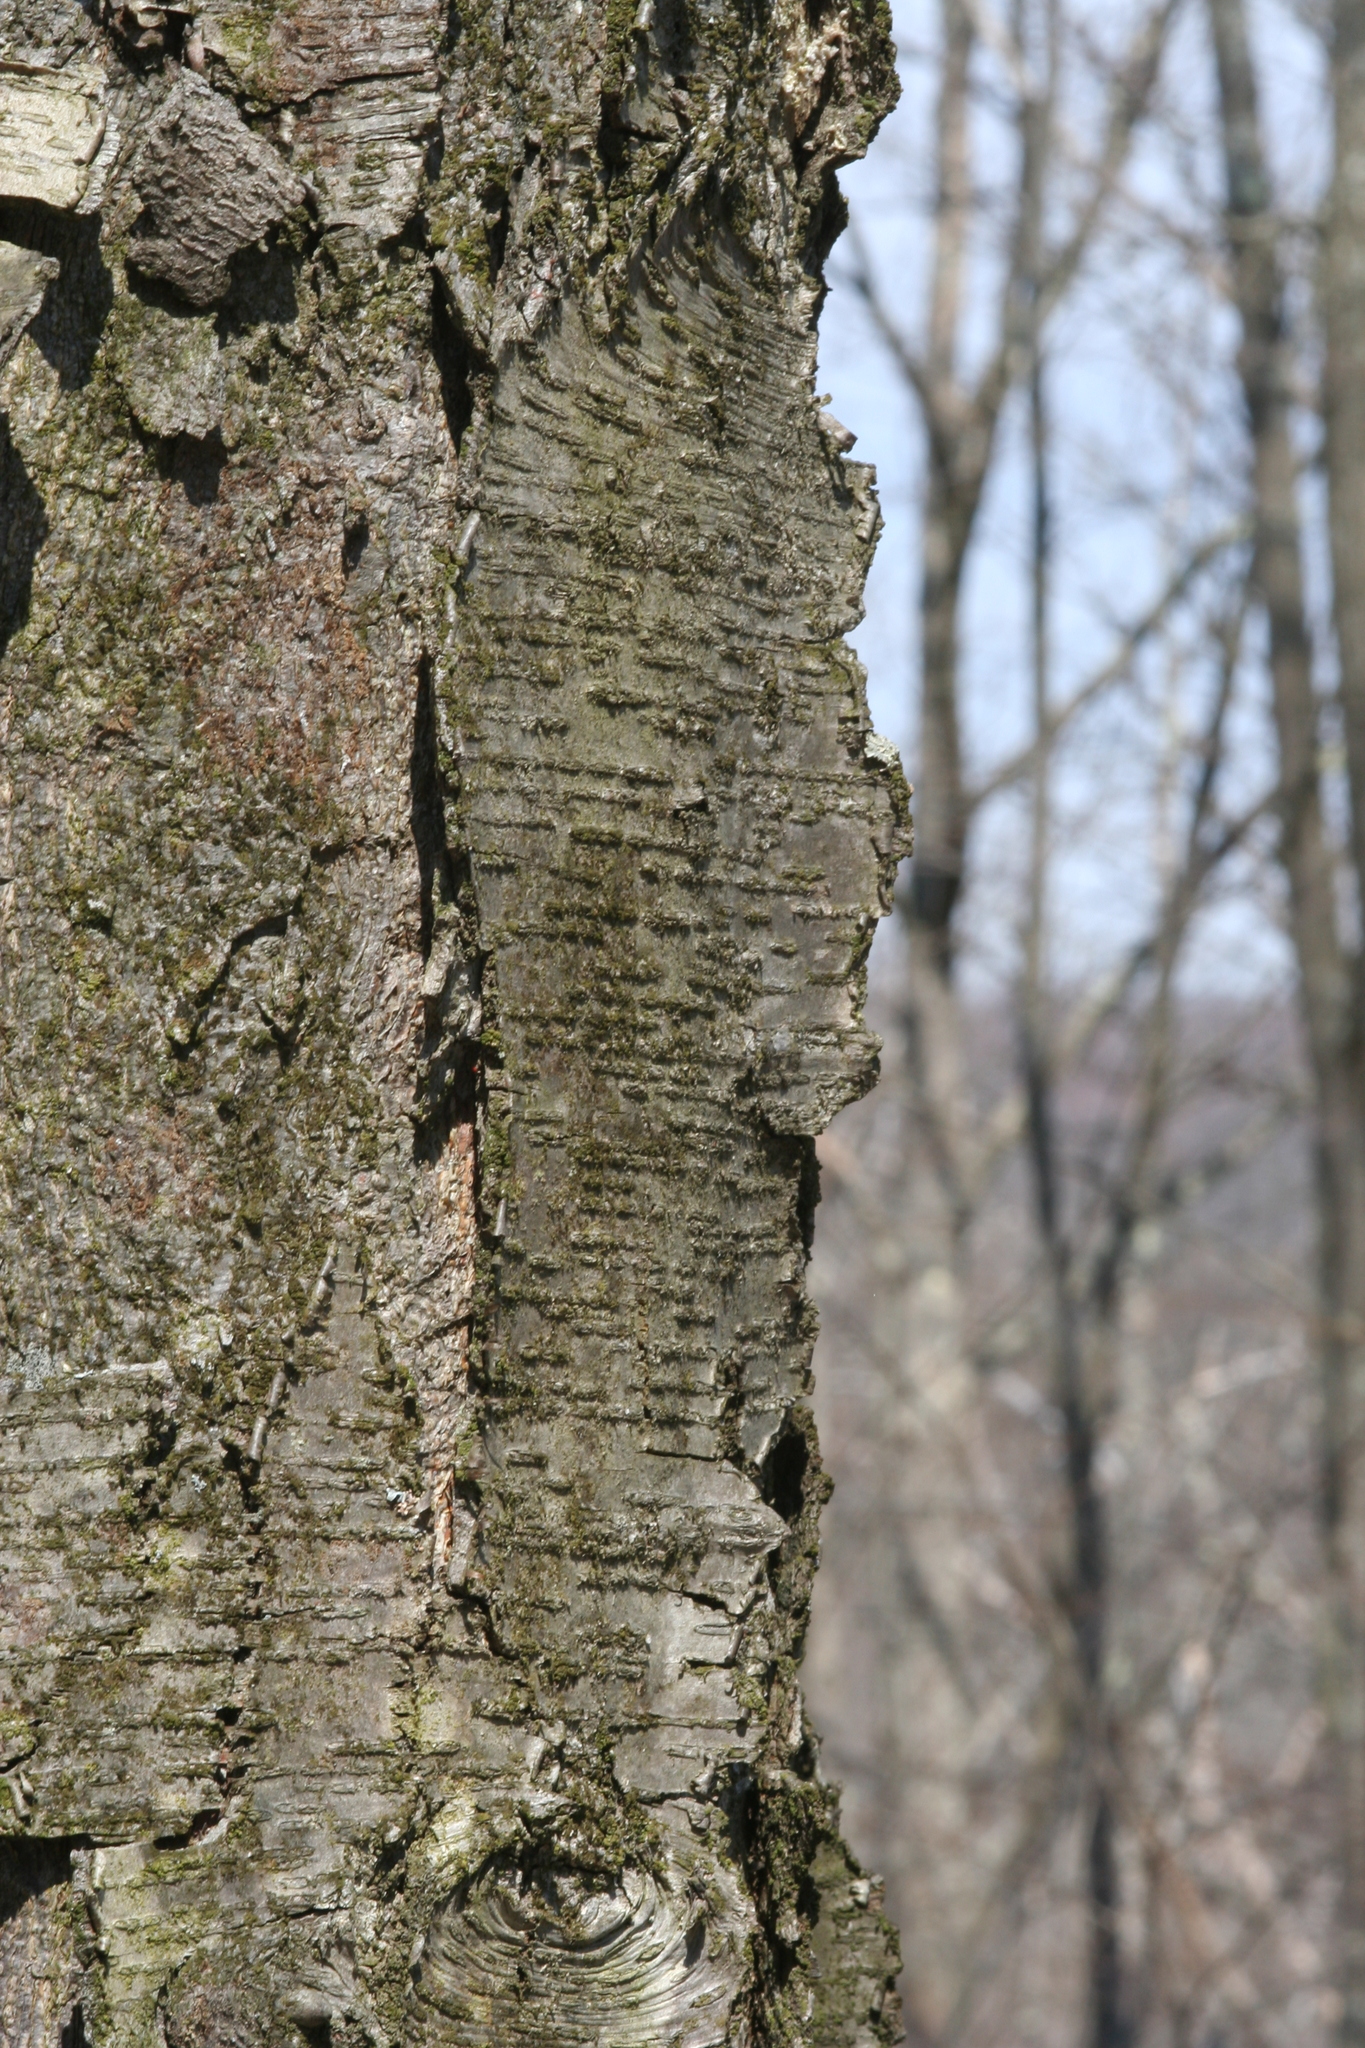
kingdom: Plantae
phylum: Tracheophyta
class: Magnoliopsida
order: Fagales
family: Betulaceae
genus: Betula
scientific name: Betula lenta
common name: Black birch
